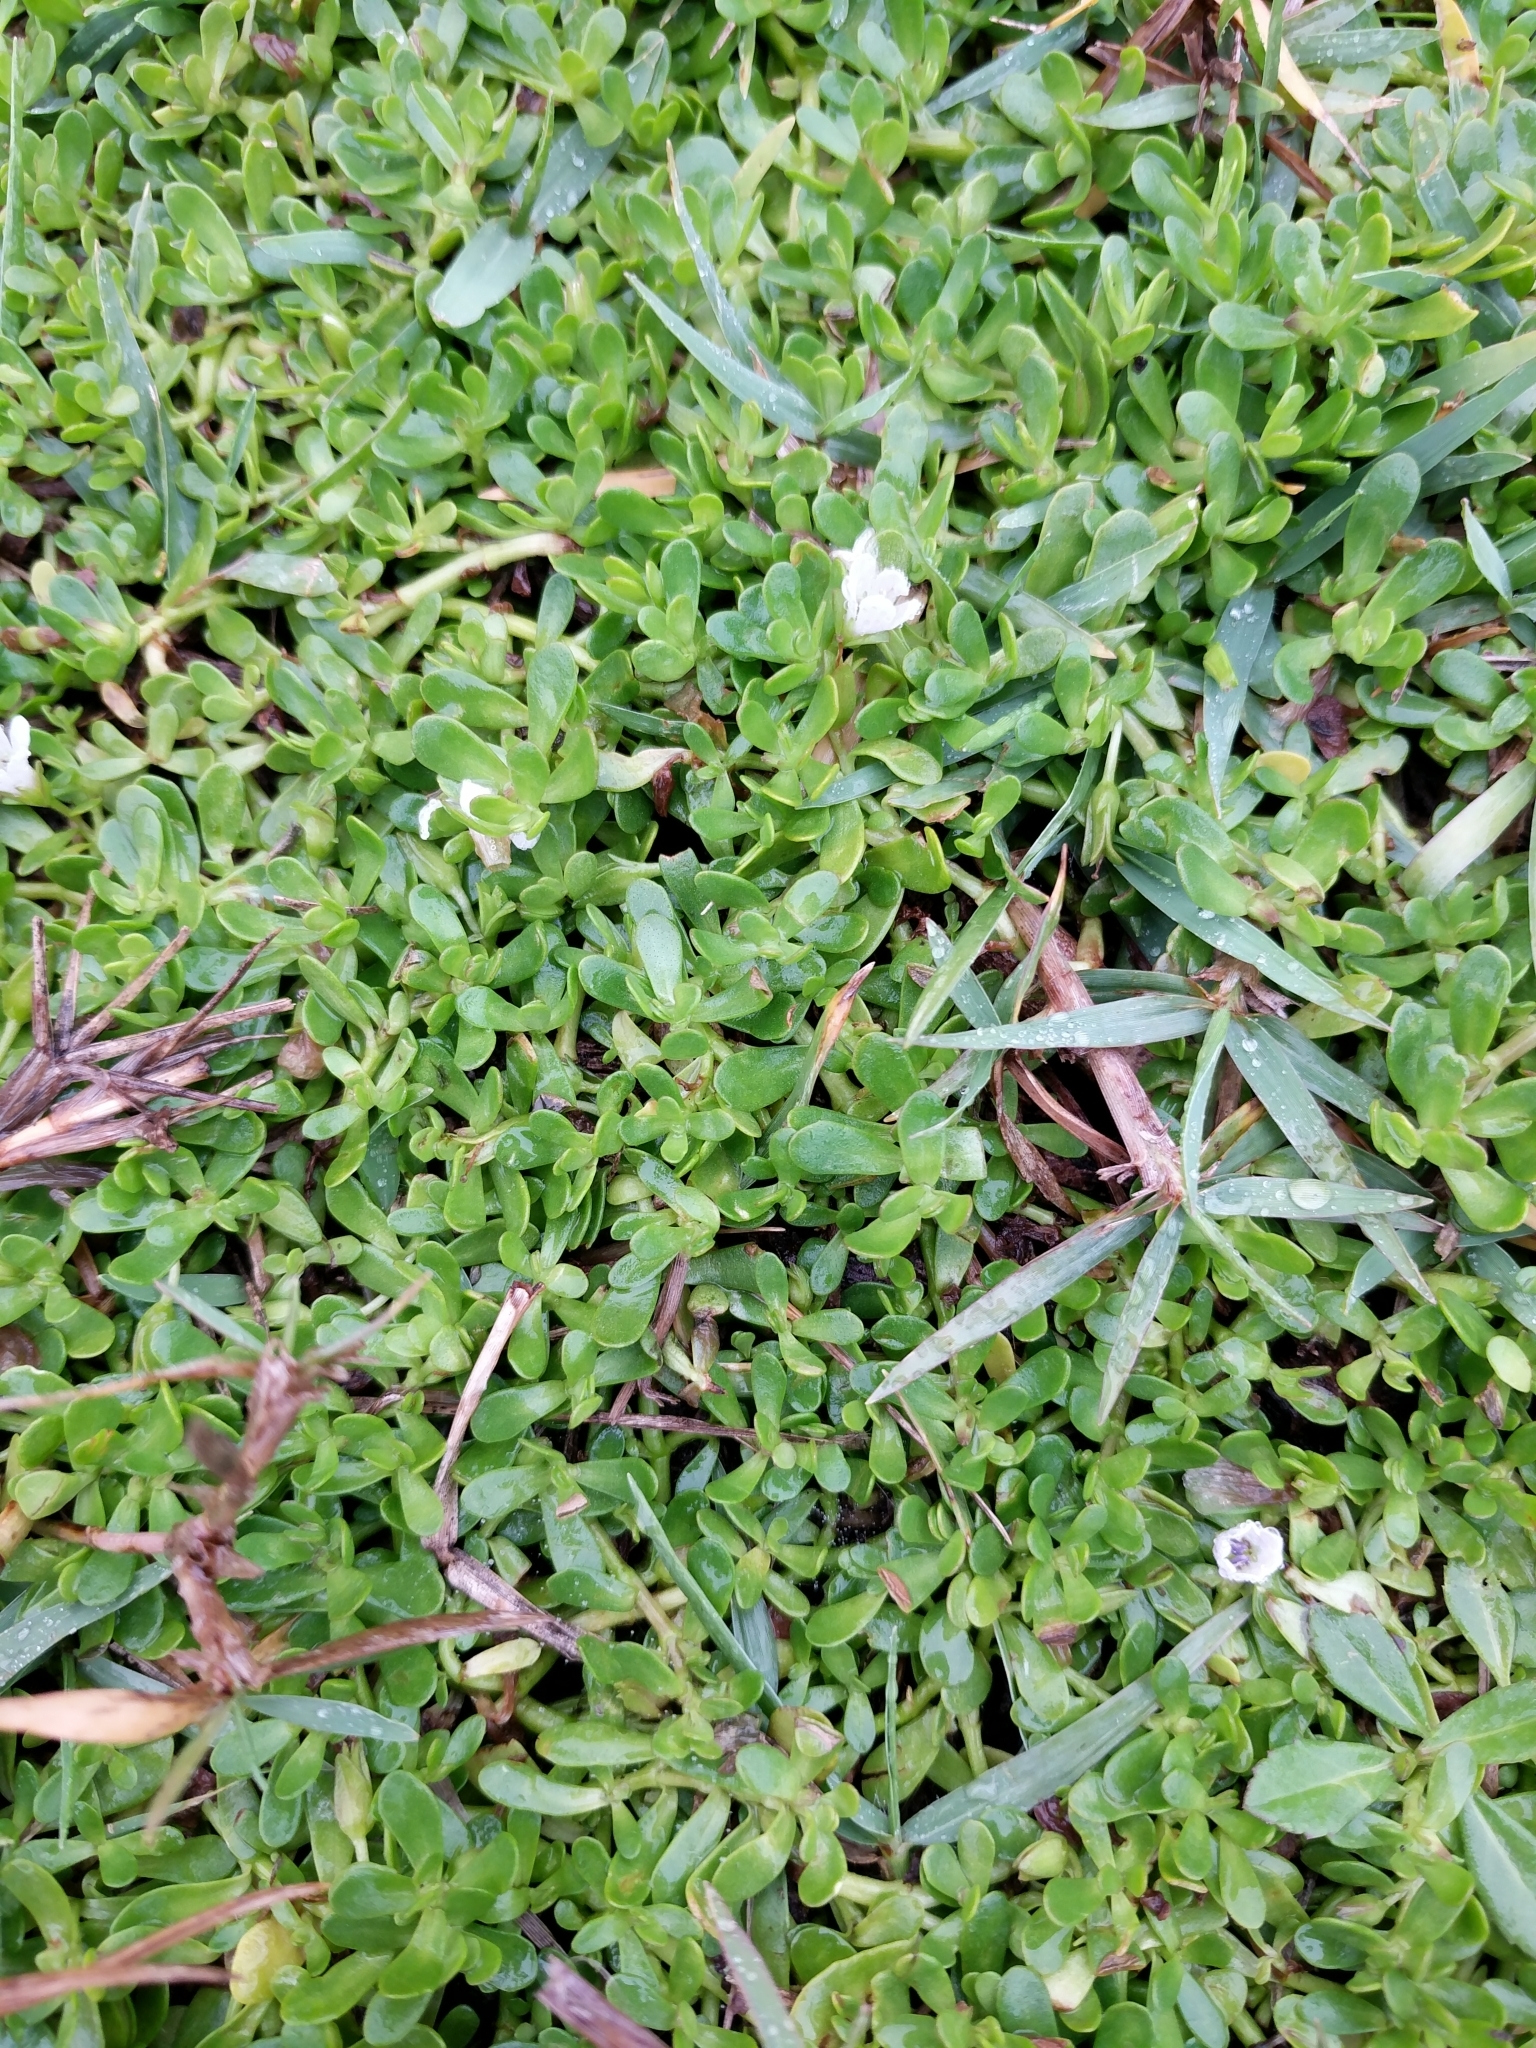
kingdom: Plantae
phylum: Tracheophyta
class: Magnoliopsida
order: Lamiales
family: Plantaginaceae
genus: Bacopa
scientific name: Bacopa monnieri
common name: Indian-pennywort
